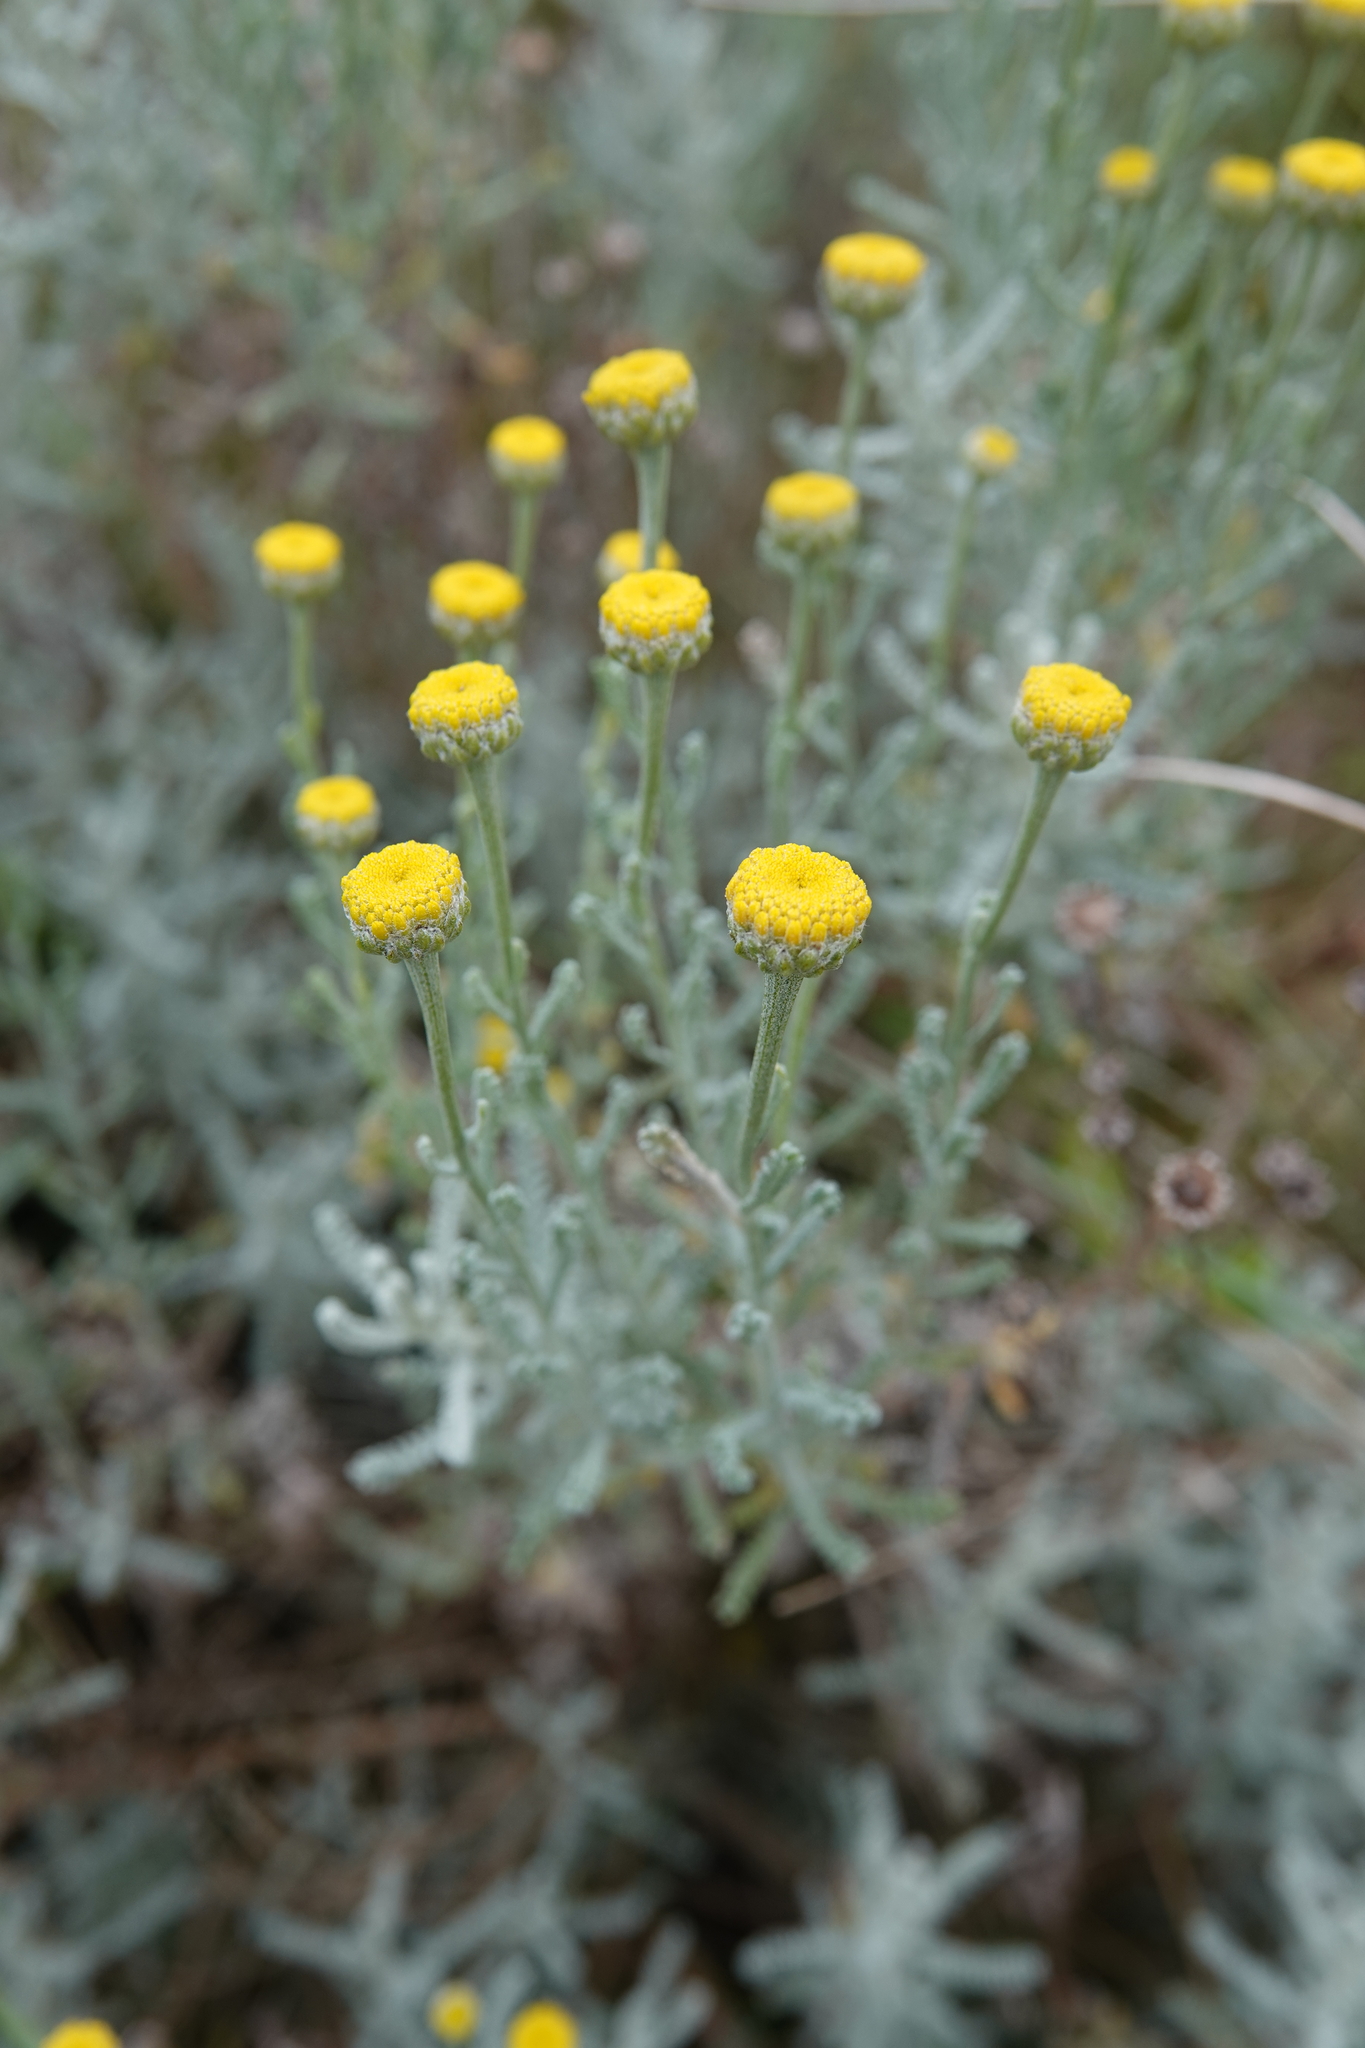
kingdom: Plantae
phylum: Tracheophyta
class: Magnoliopsida
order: Asterales
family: Asteraceae
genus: Santolina
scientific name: Santolina chamaecyparissus
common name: Lavender-cotton
